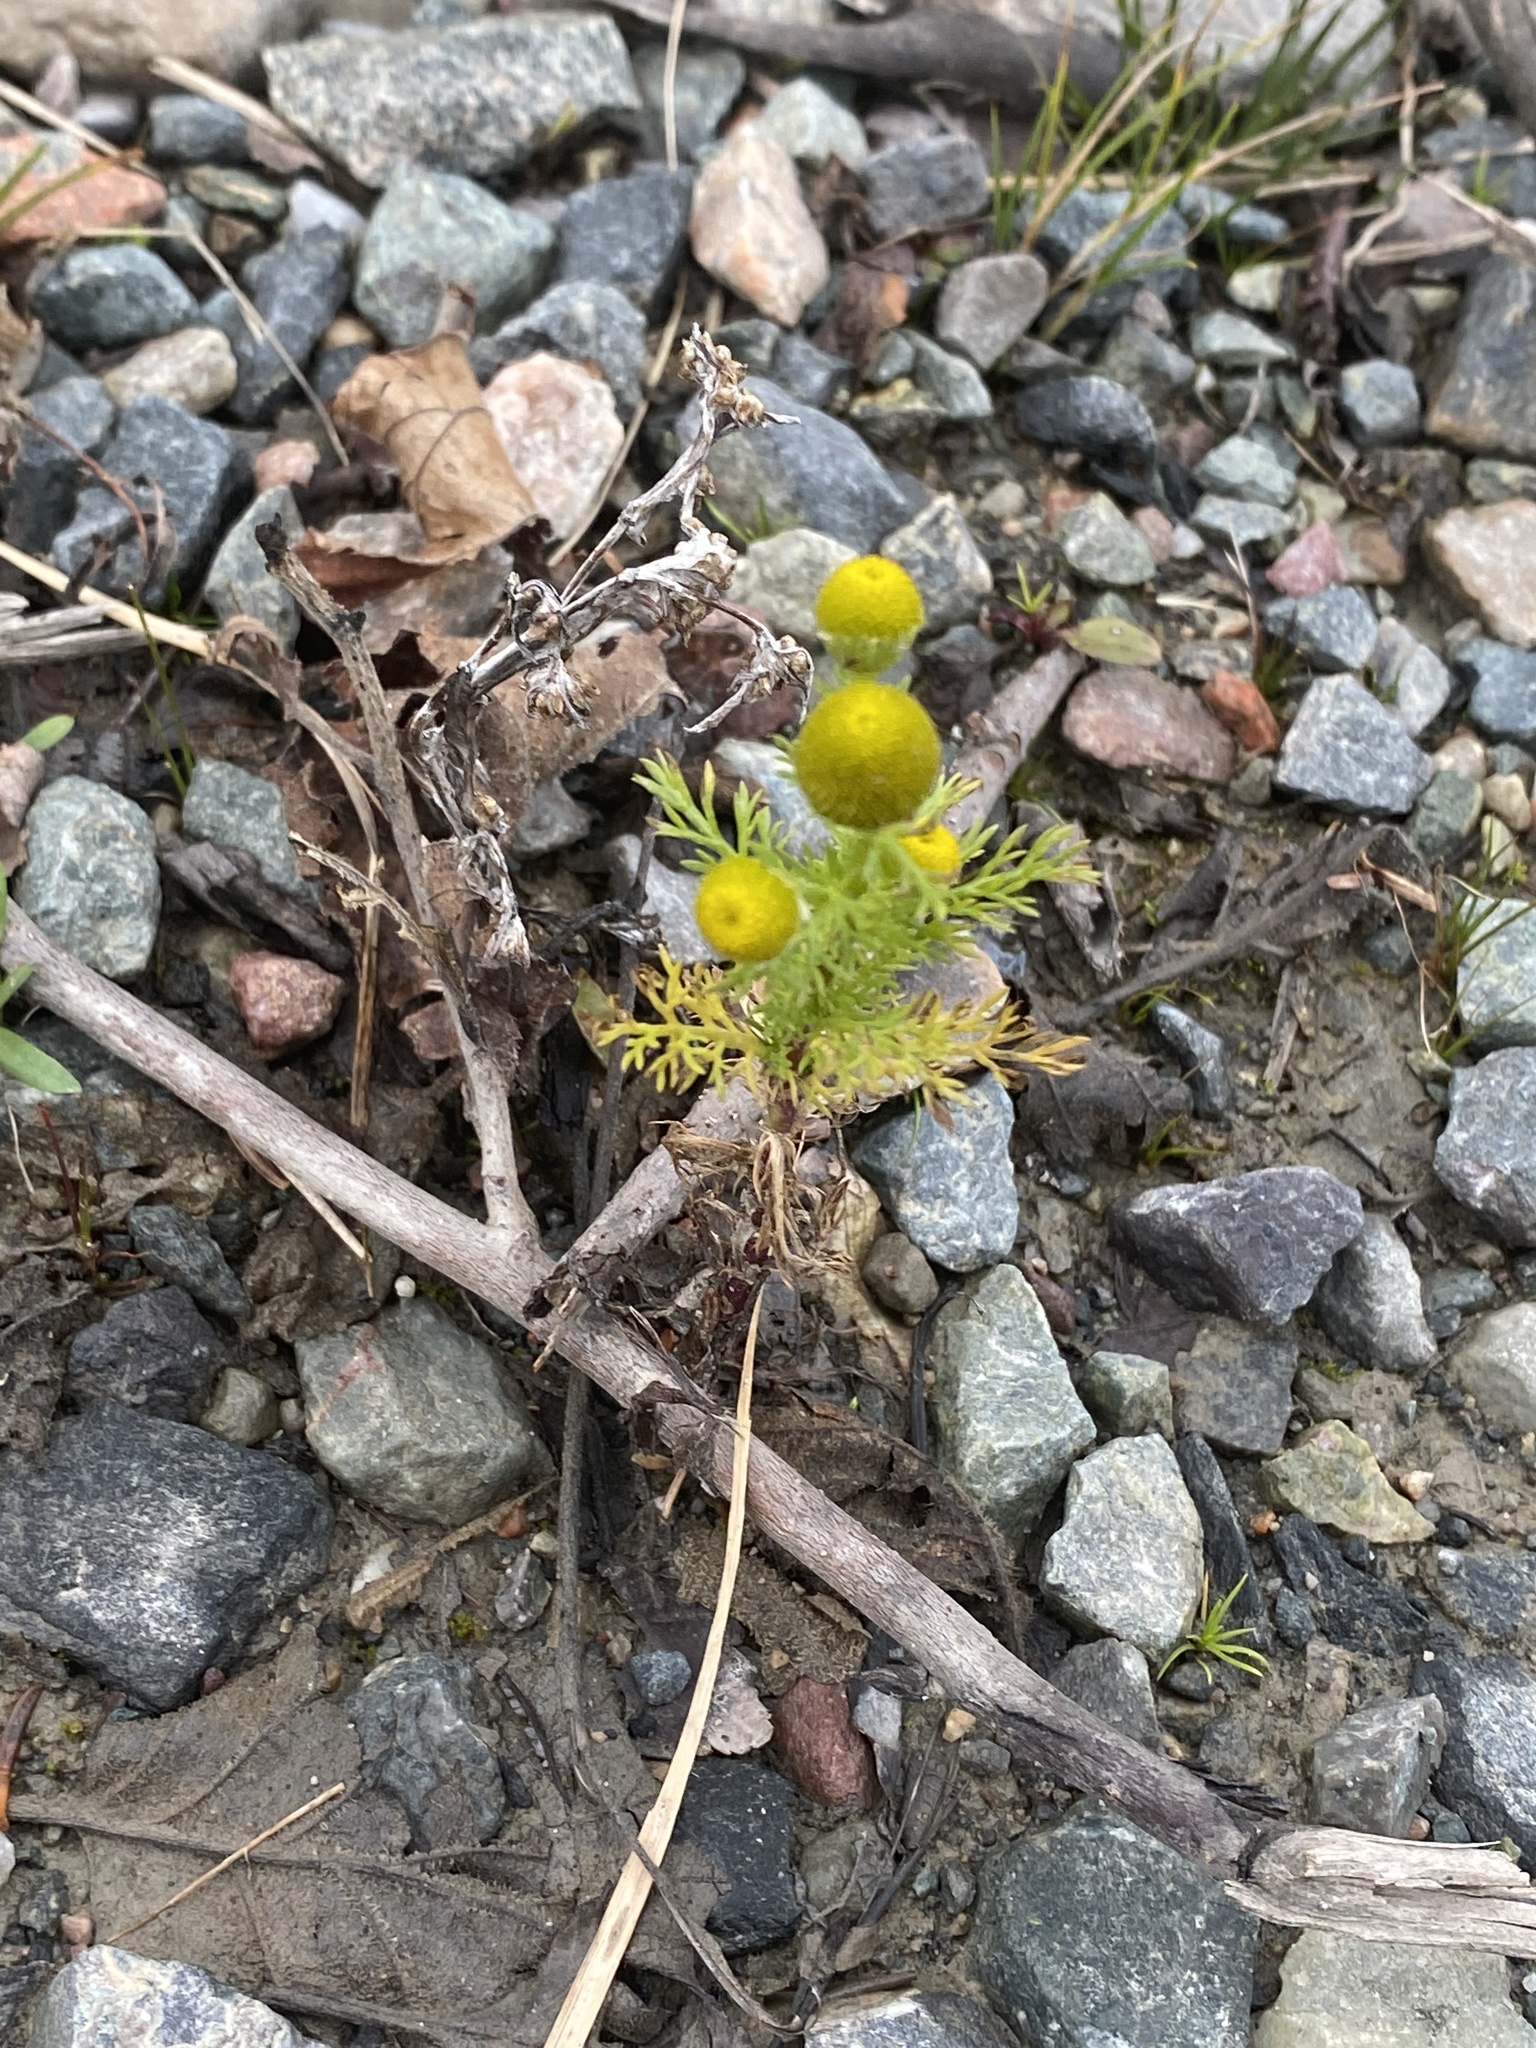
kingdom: Plantae
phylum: Tracheophyta
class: Magnoliopsida
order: Asterales
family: Asteraceae
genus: Matricaria
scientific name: Matricaria discoidea
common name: Disc mayweed
